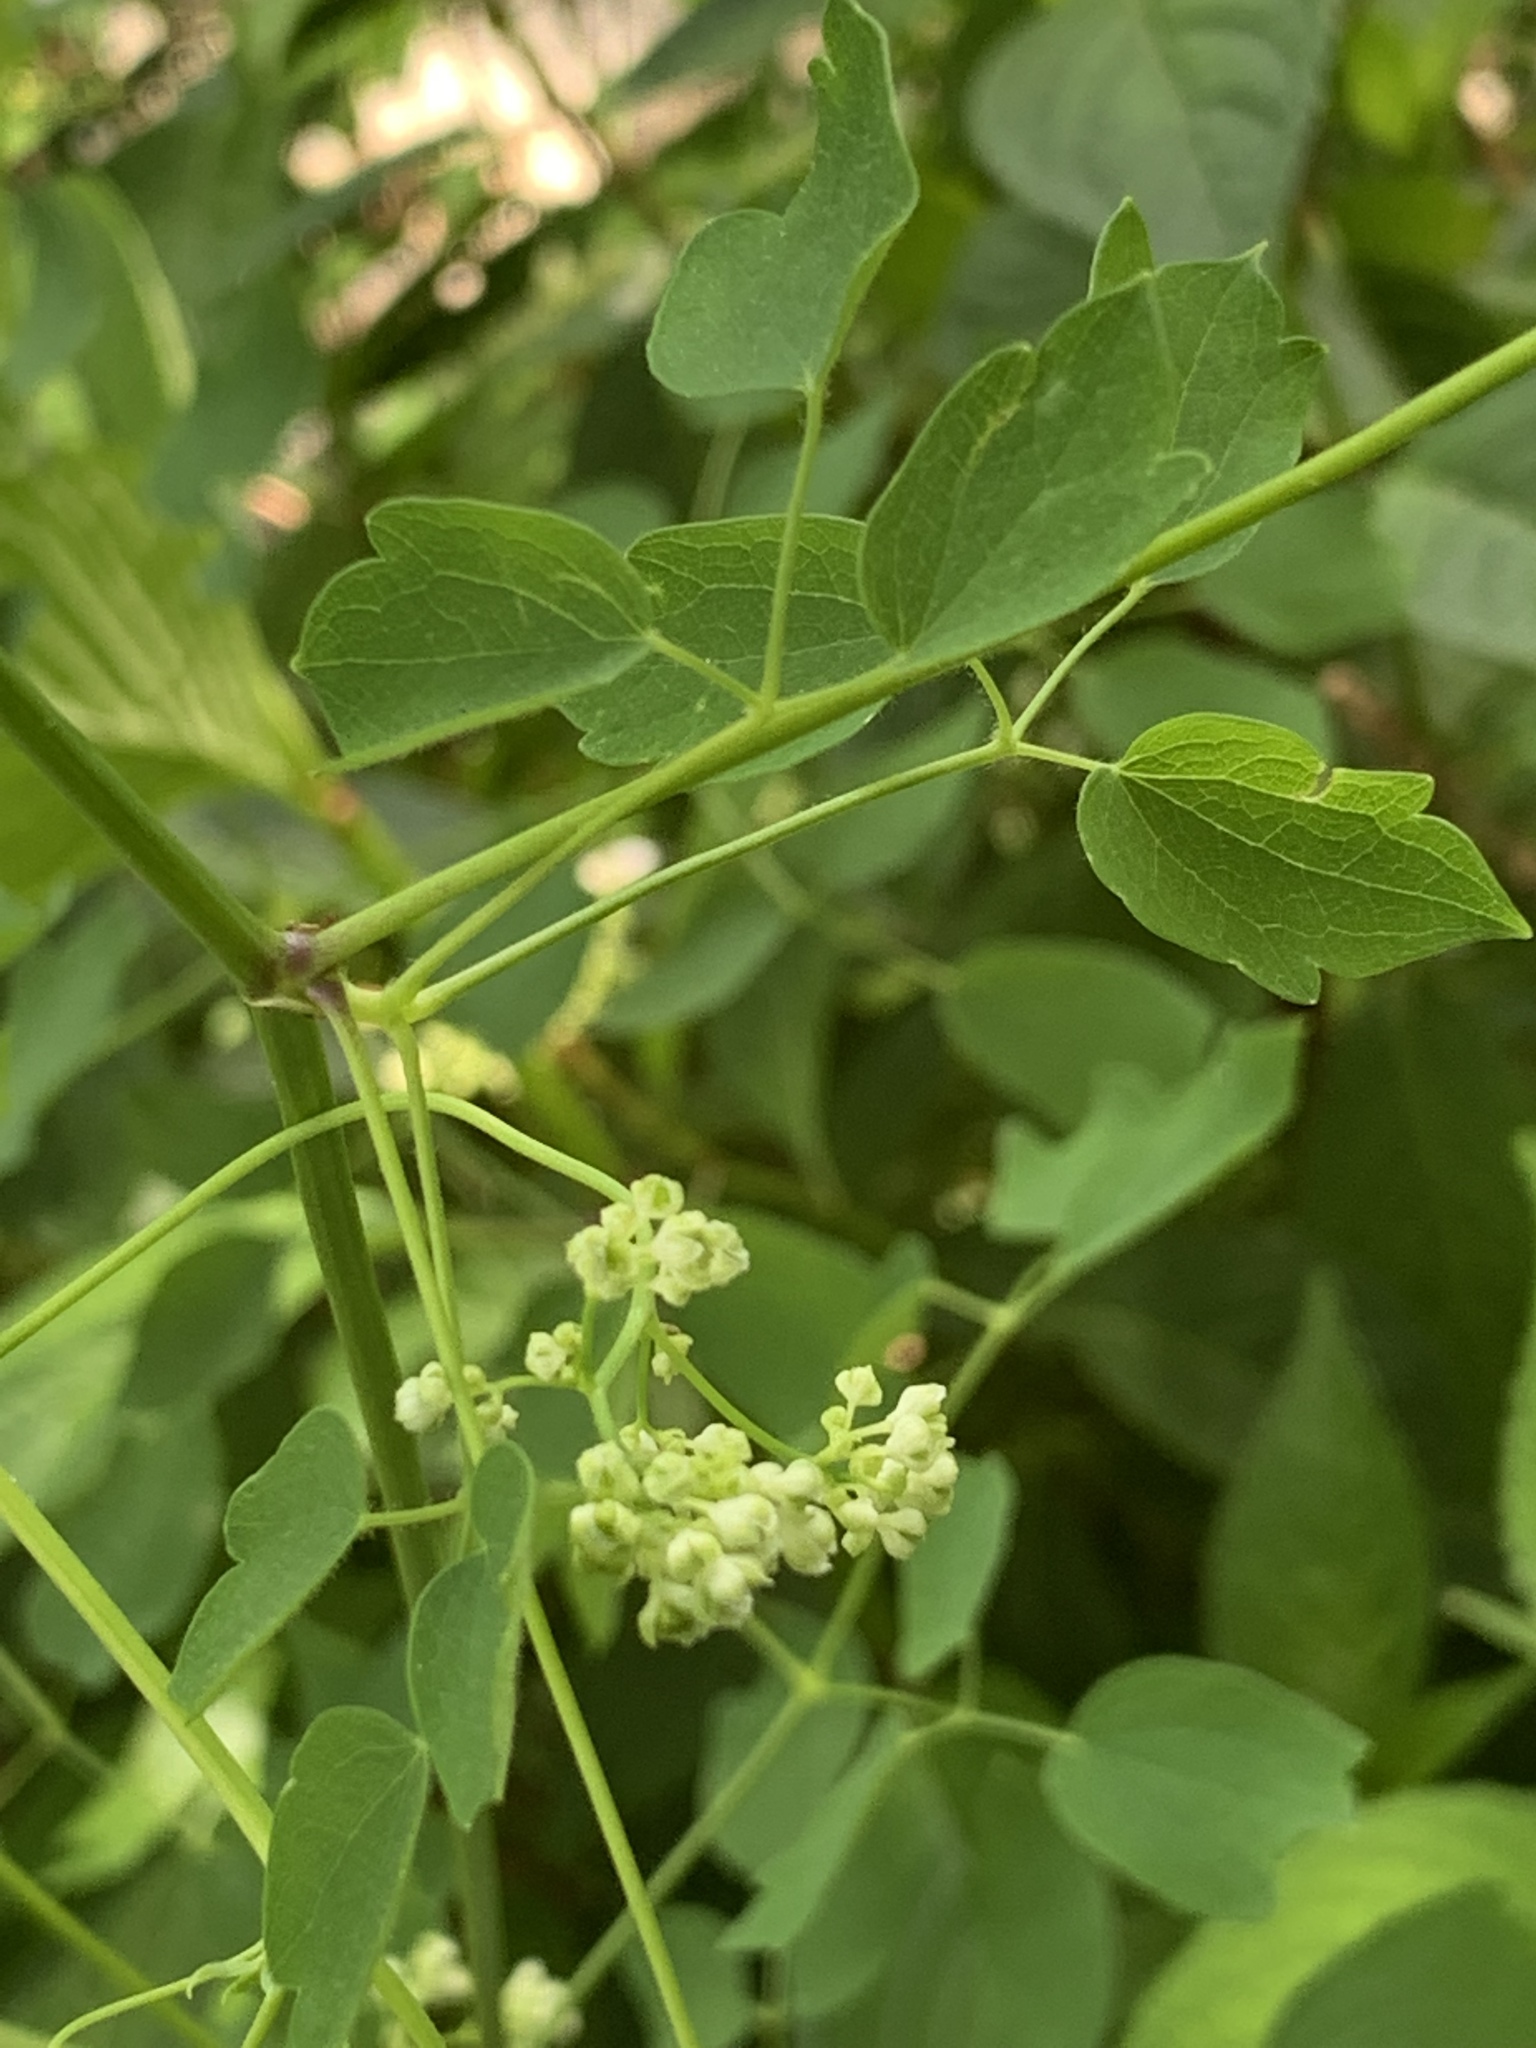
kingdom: Plantae
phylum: Tracheophyta
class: Magnoliopsida
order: Ranunculales
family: Ranunculaceae
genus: Thalictrum
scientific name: Thalictrum pubescens
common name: King-of-the-meadow
